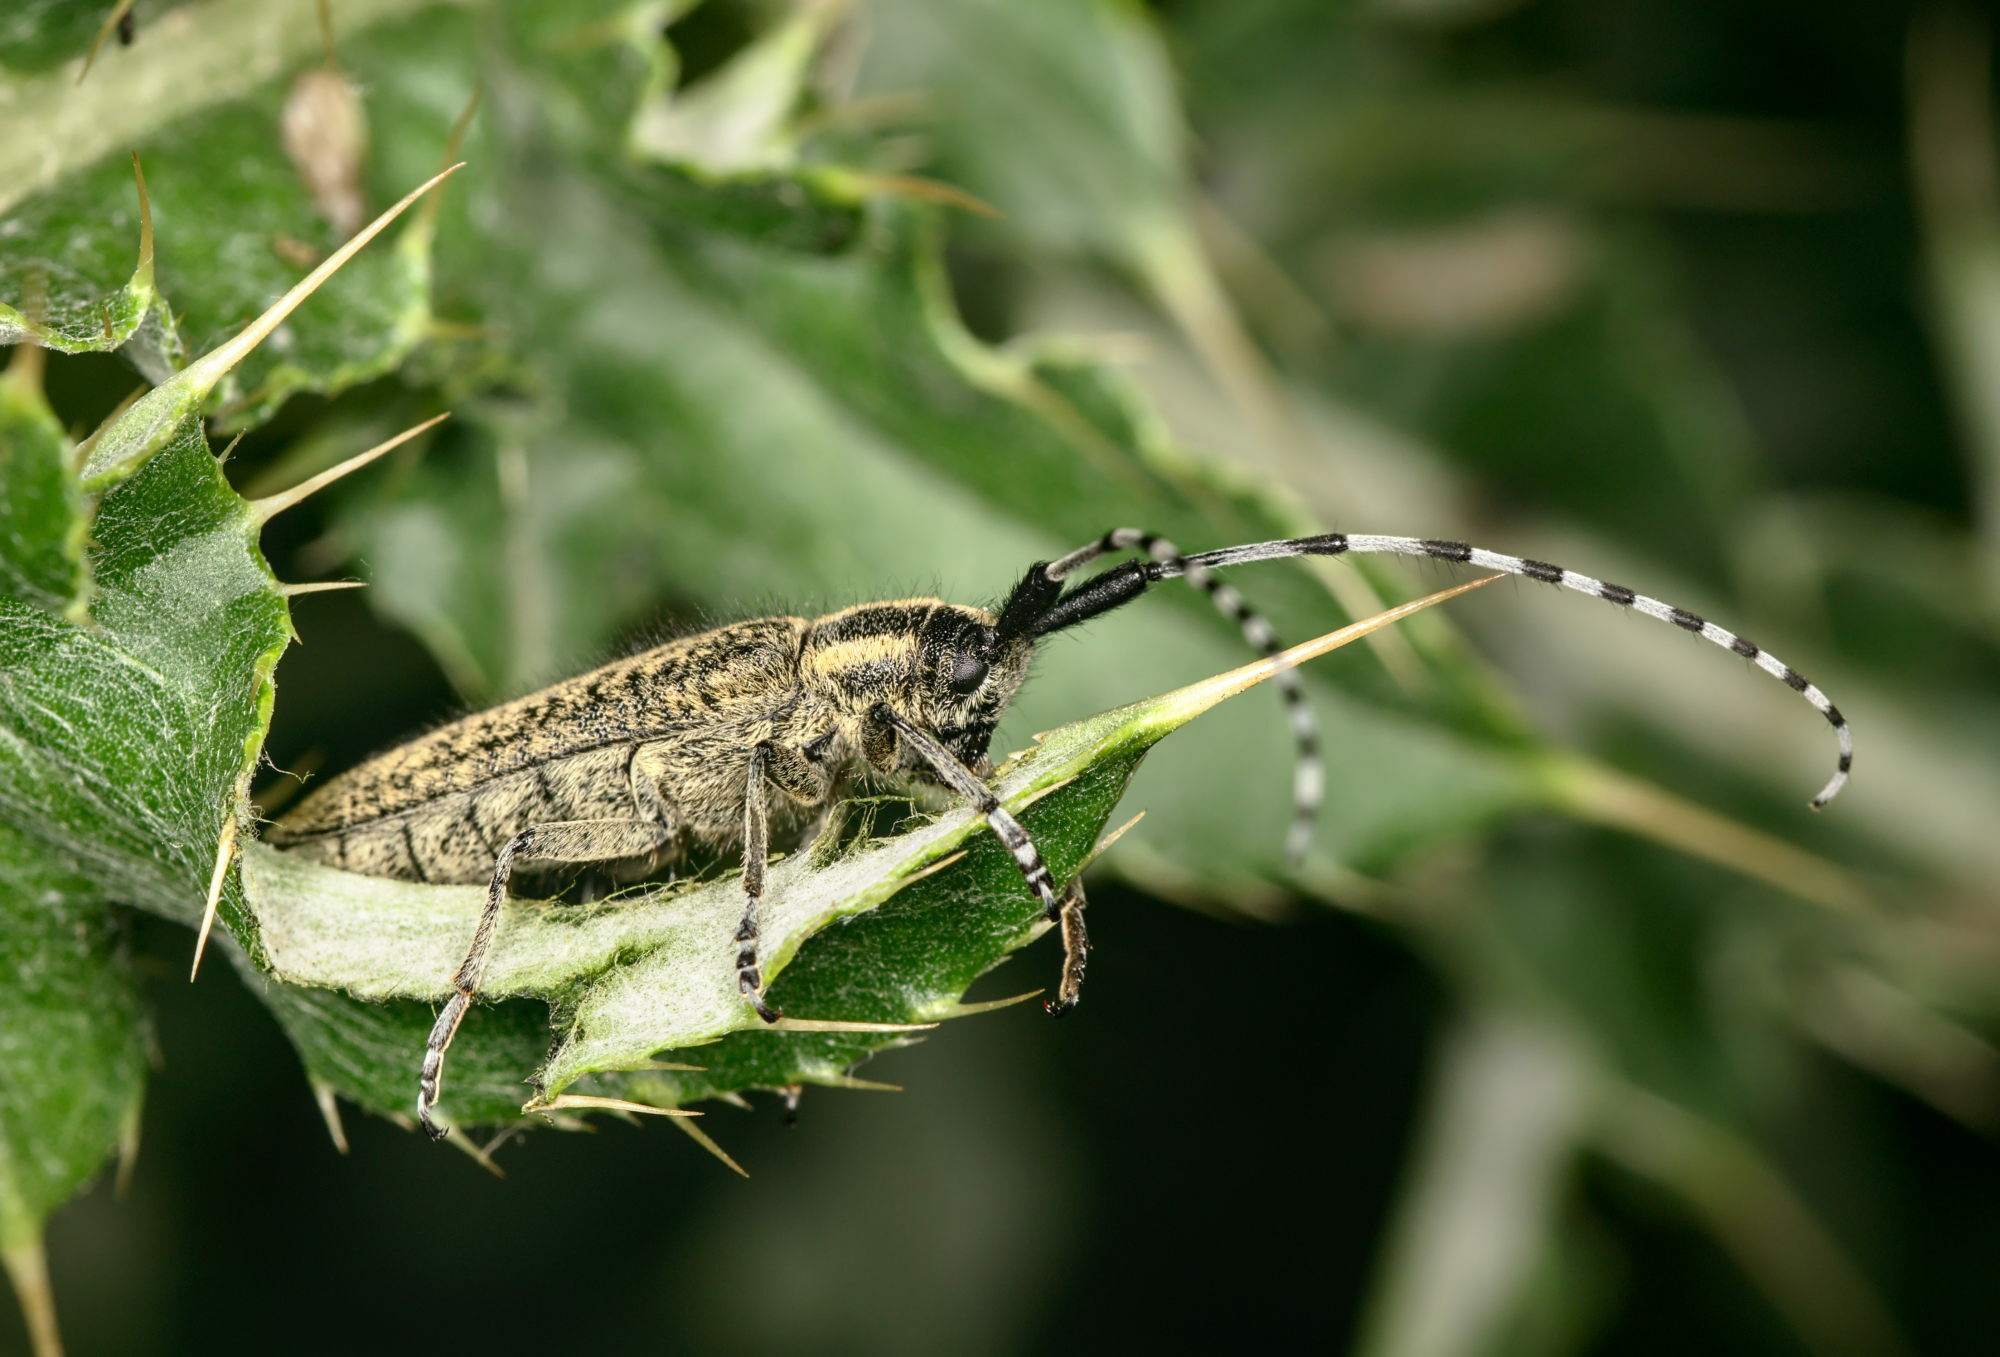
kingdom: Animalia
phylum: Arthropoda
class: Insecta
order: Coleoptera
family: Cerambycidae
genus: Agapanthia
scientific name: Agapanthia villosoviridescens
